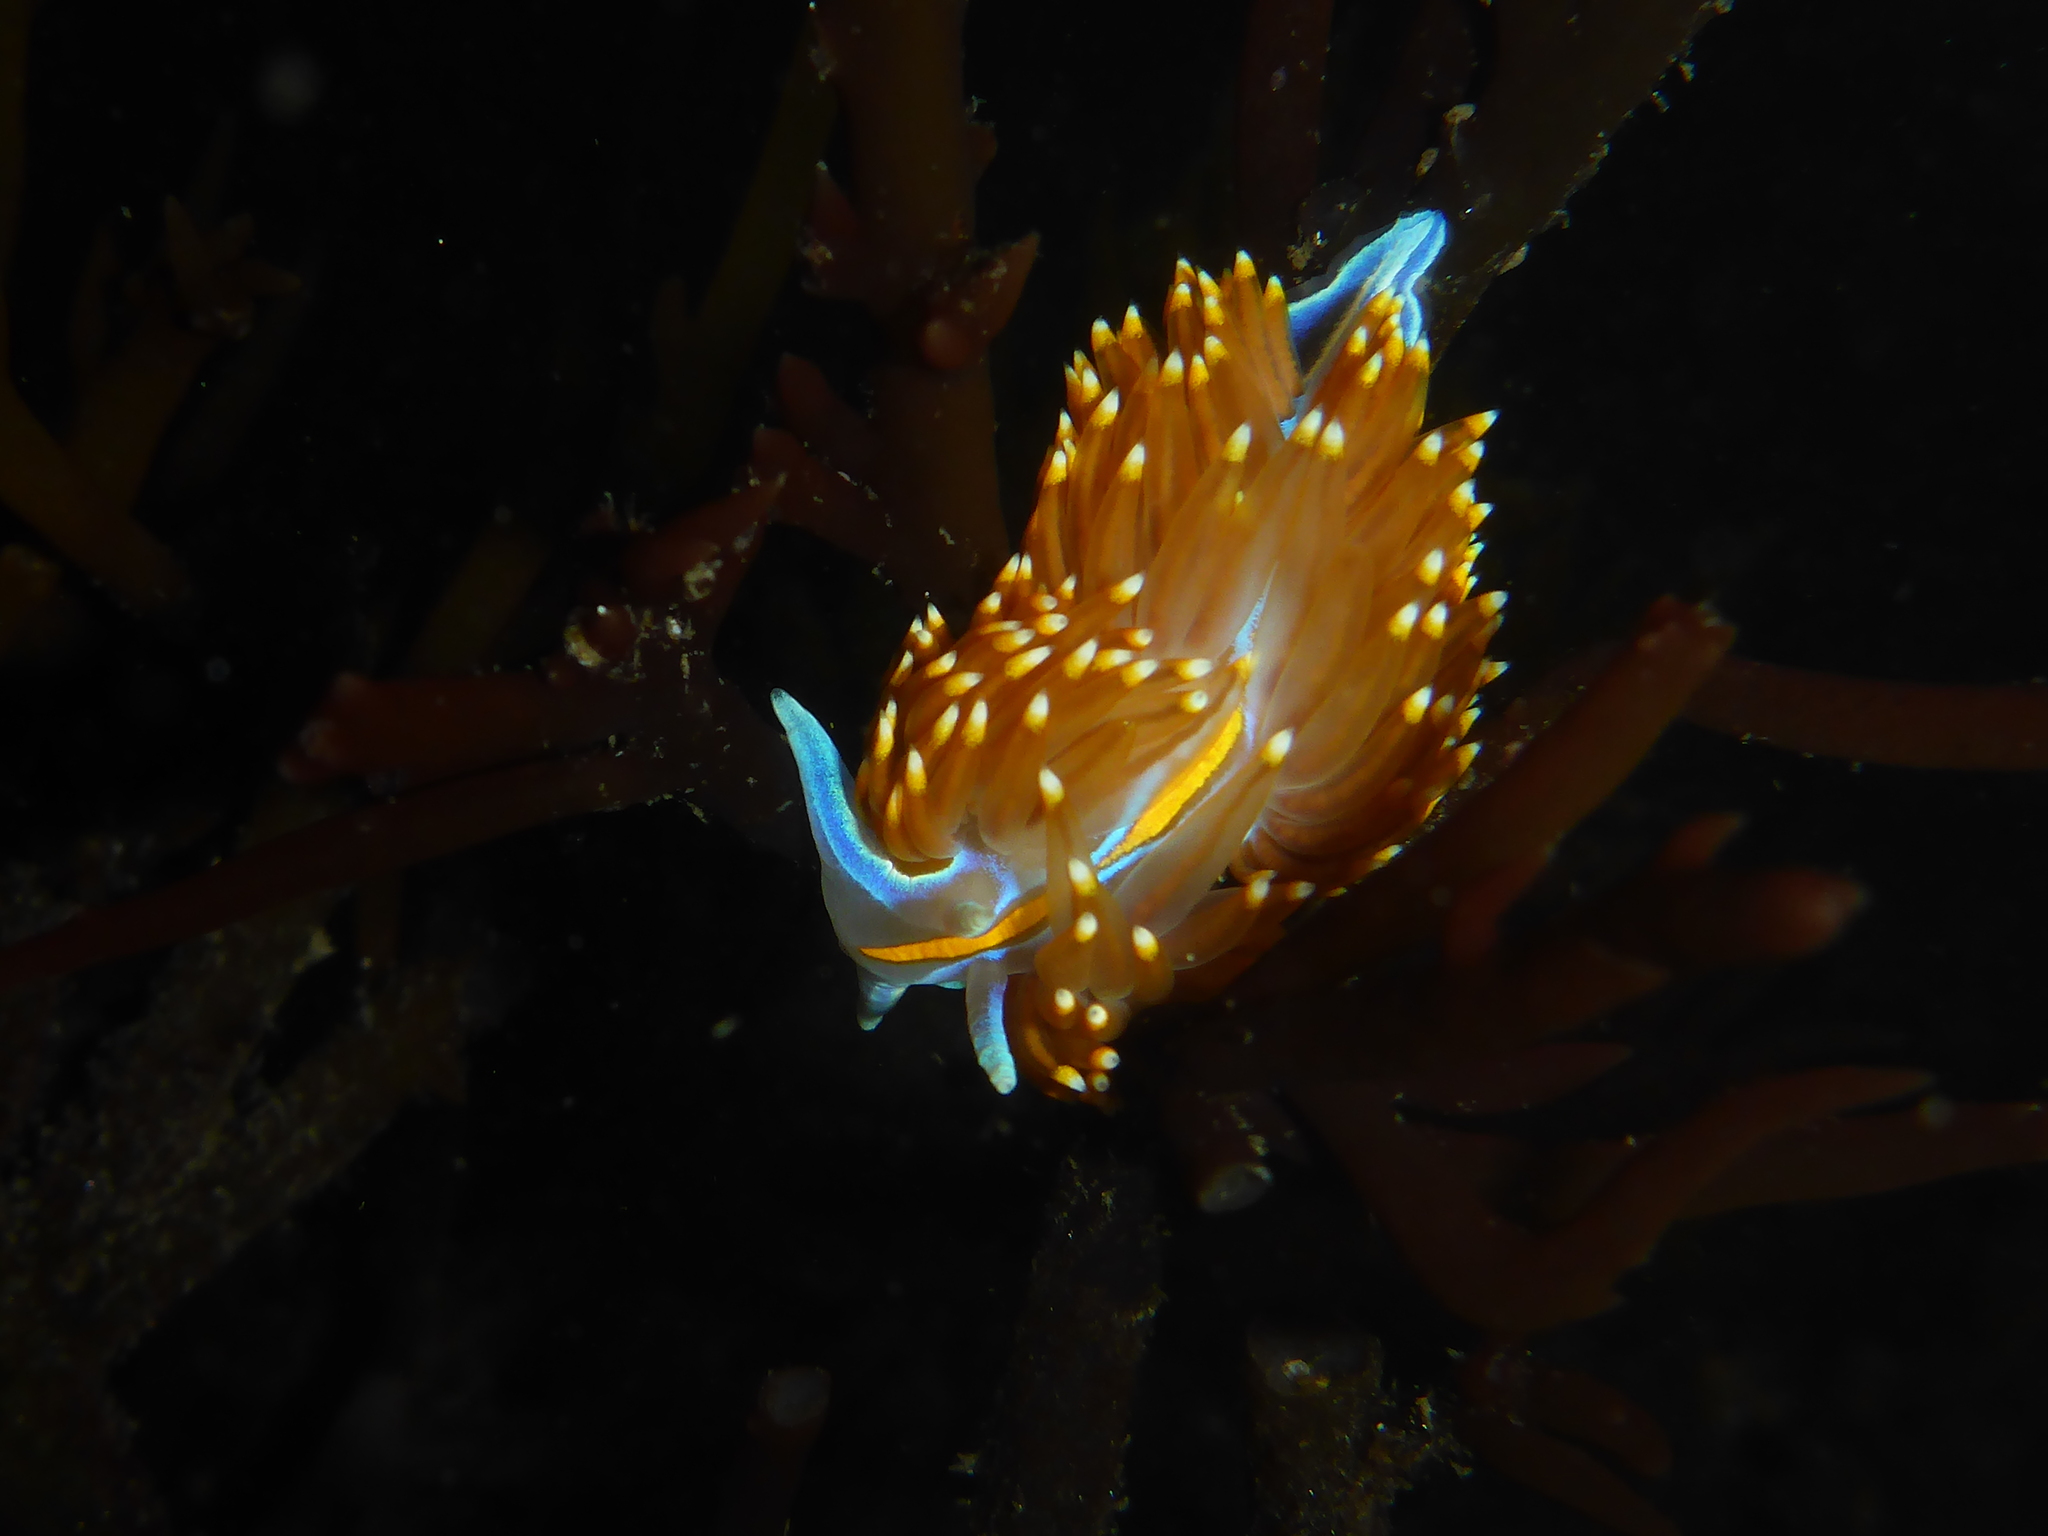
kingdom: Animalia
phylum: Mollusca
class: Gastropoda
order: Nudibranchia
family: Myrrhinidae
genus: Hermissenda
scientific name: Hermissenda opalescens
